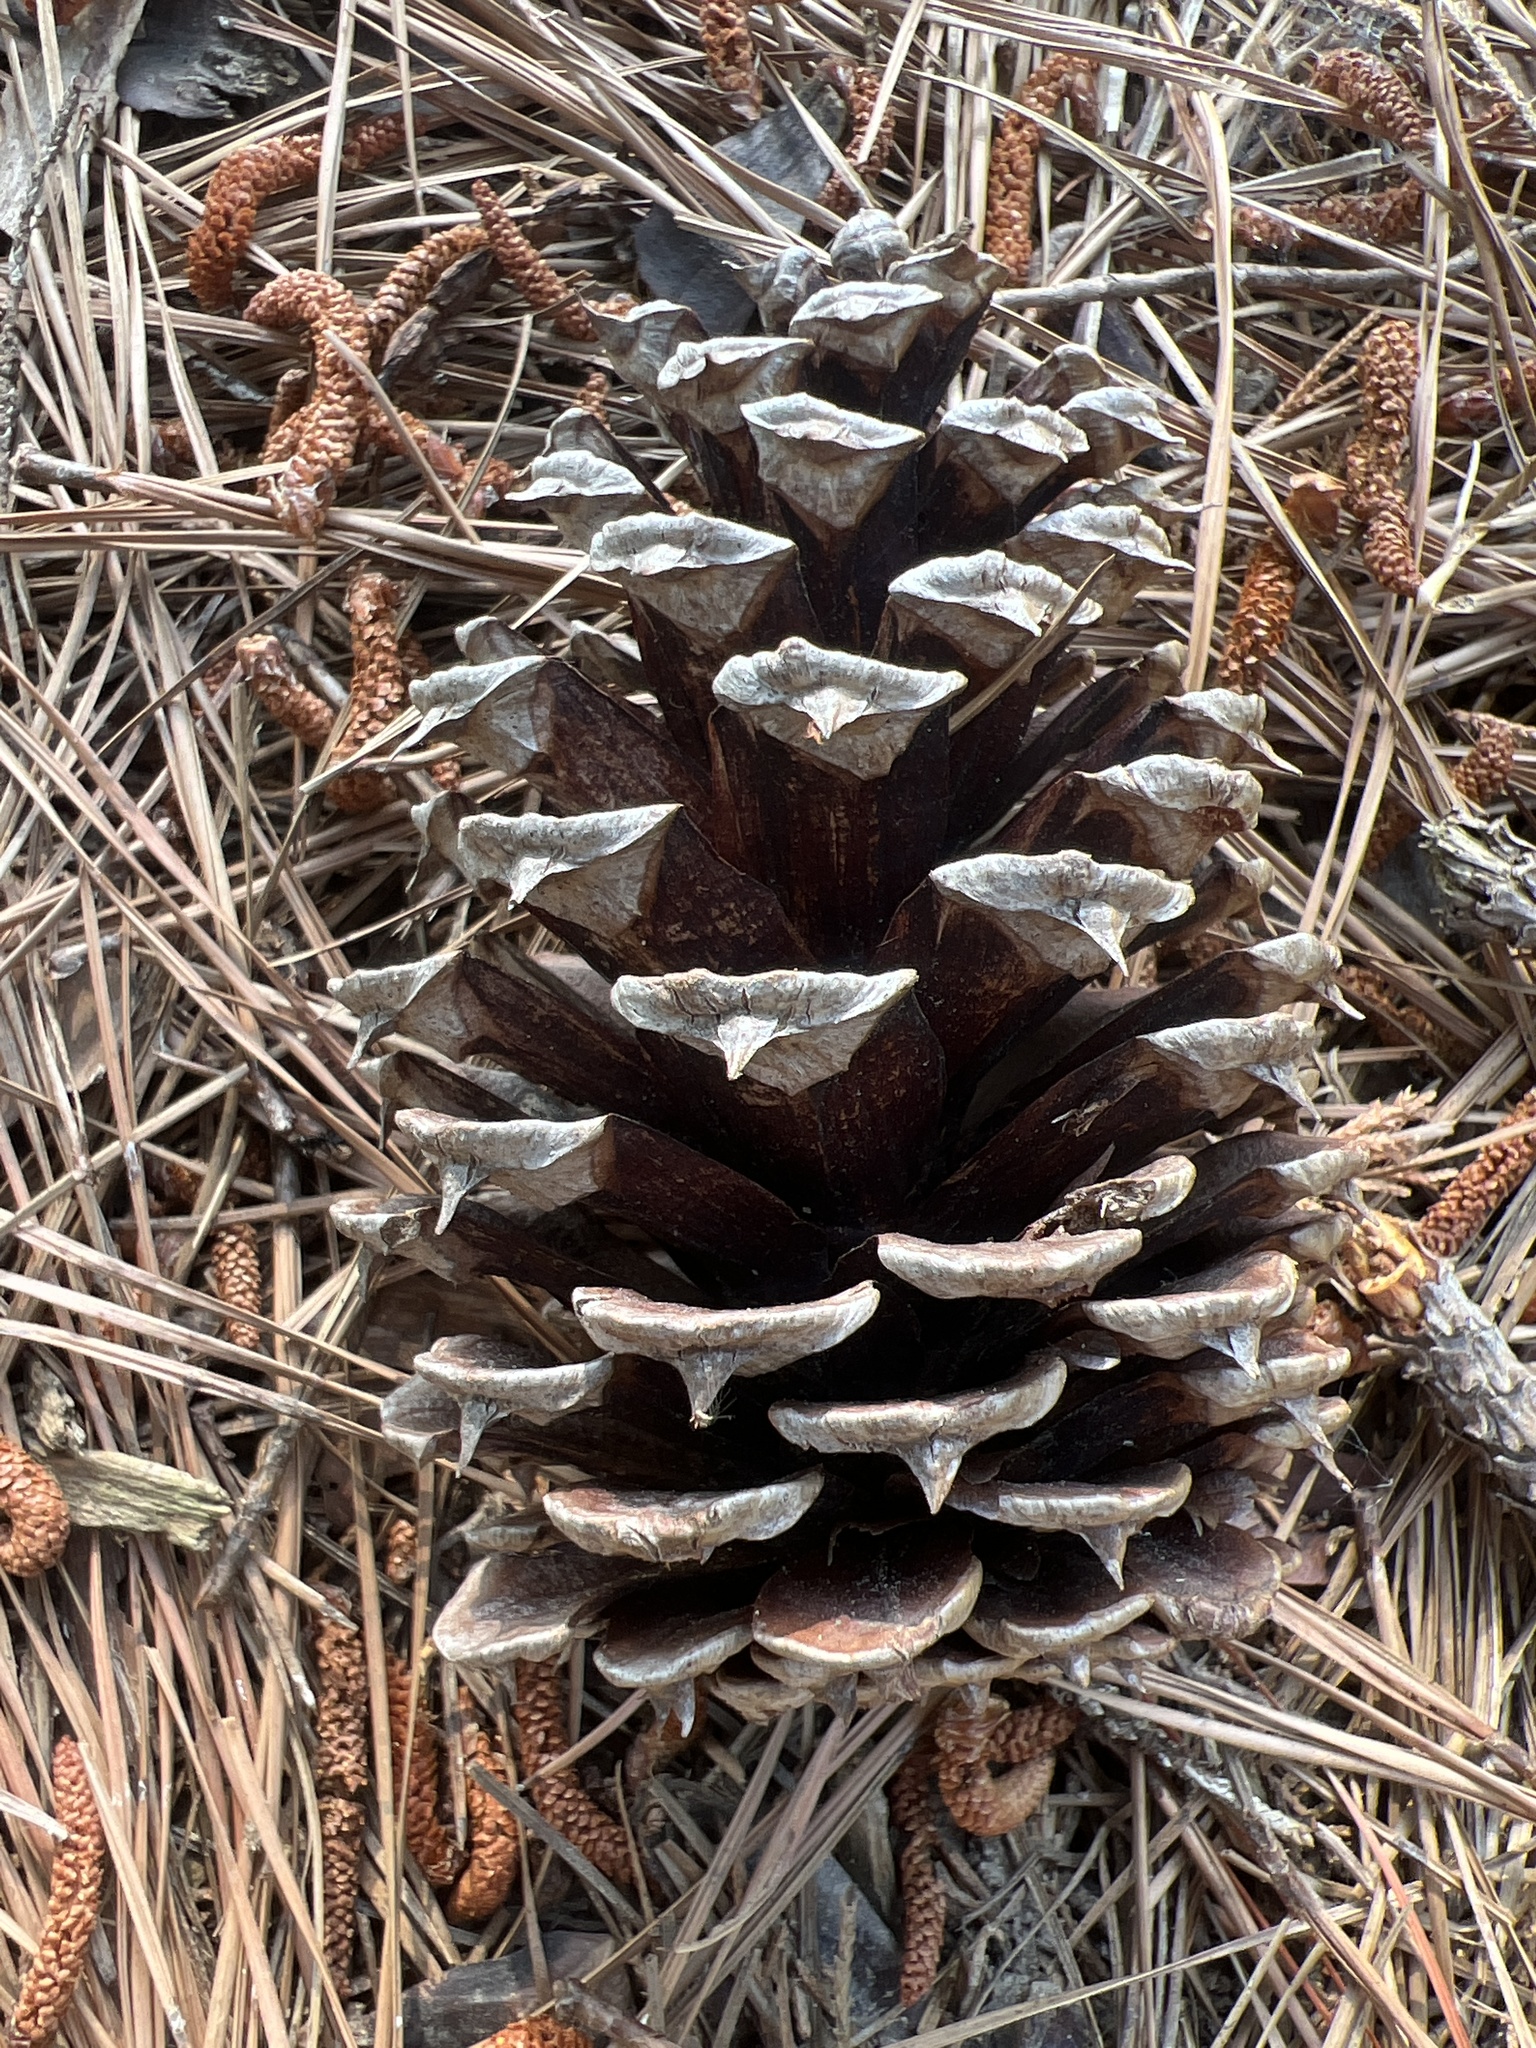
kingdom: Plantae
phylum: Tracheophyta
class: Pinopsida
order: Pinales
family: Pinaceae
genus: Pinus
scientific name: Pinus taeda
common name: Loblolly pine
